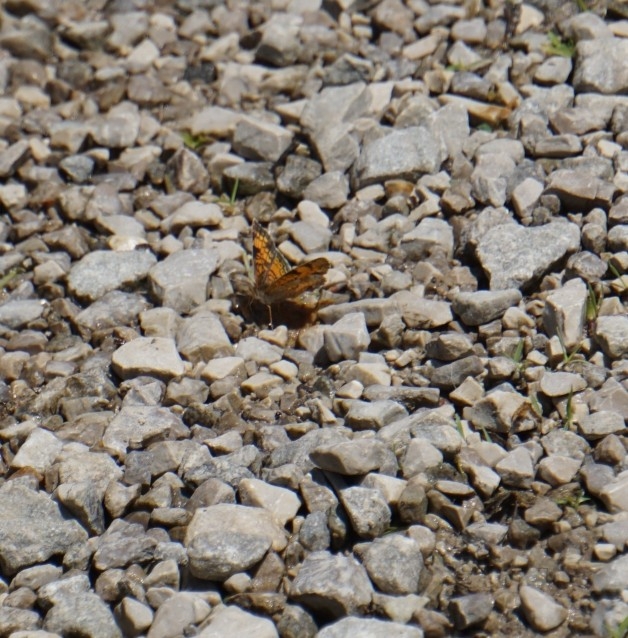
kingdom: Animalia
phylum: Arthropoda
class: Insecta
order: Lepidoptera
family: Nymphalidae
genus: Phyciodes
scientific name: Phyciodes tharos
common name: Pearl crescent
